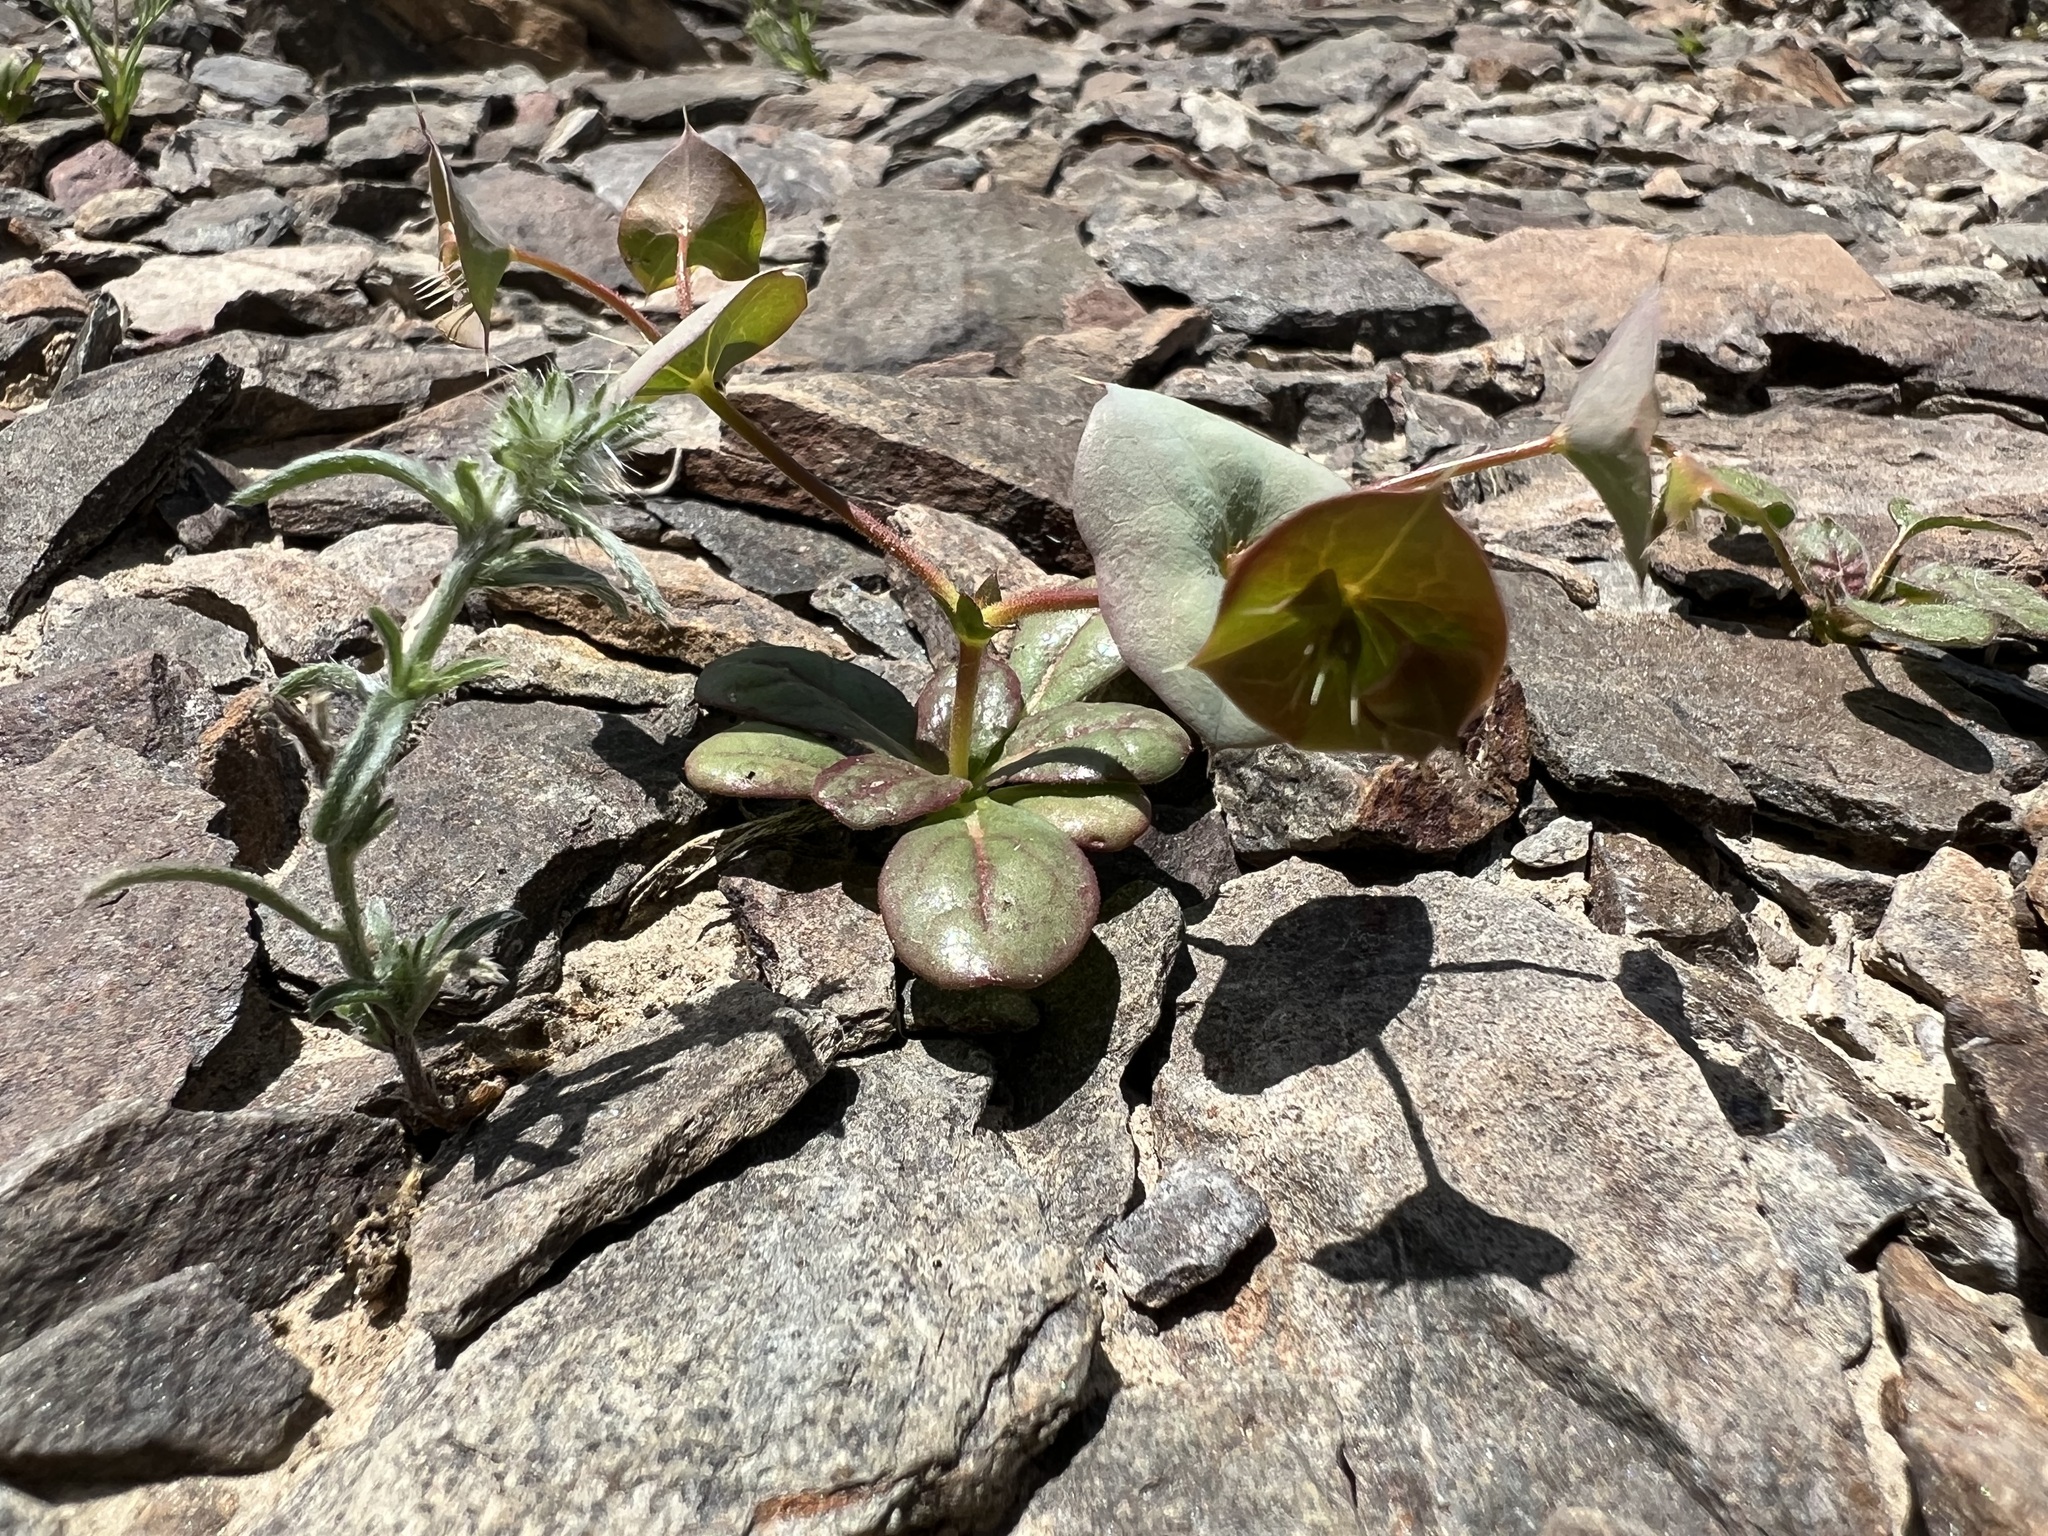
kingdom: Plantae
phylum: Tracheophyta
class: Magnoliopsida
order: Caryophyllales
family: Polygonaceae
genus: Oxytheca
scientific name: Oxytheca perfoliata
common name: Round-leaf puncturebract
